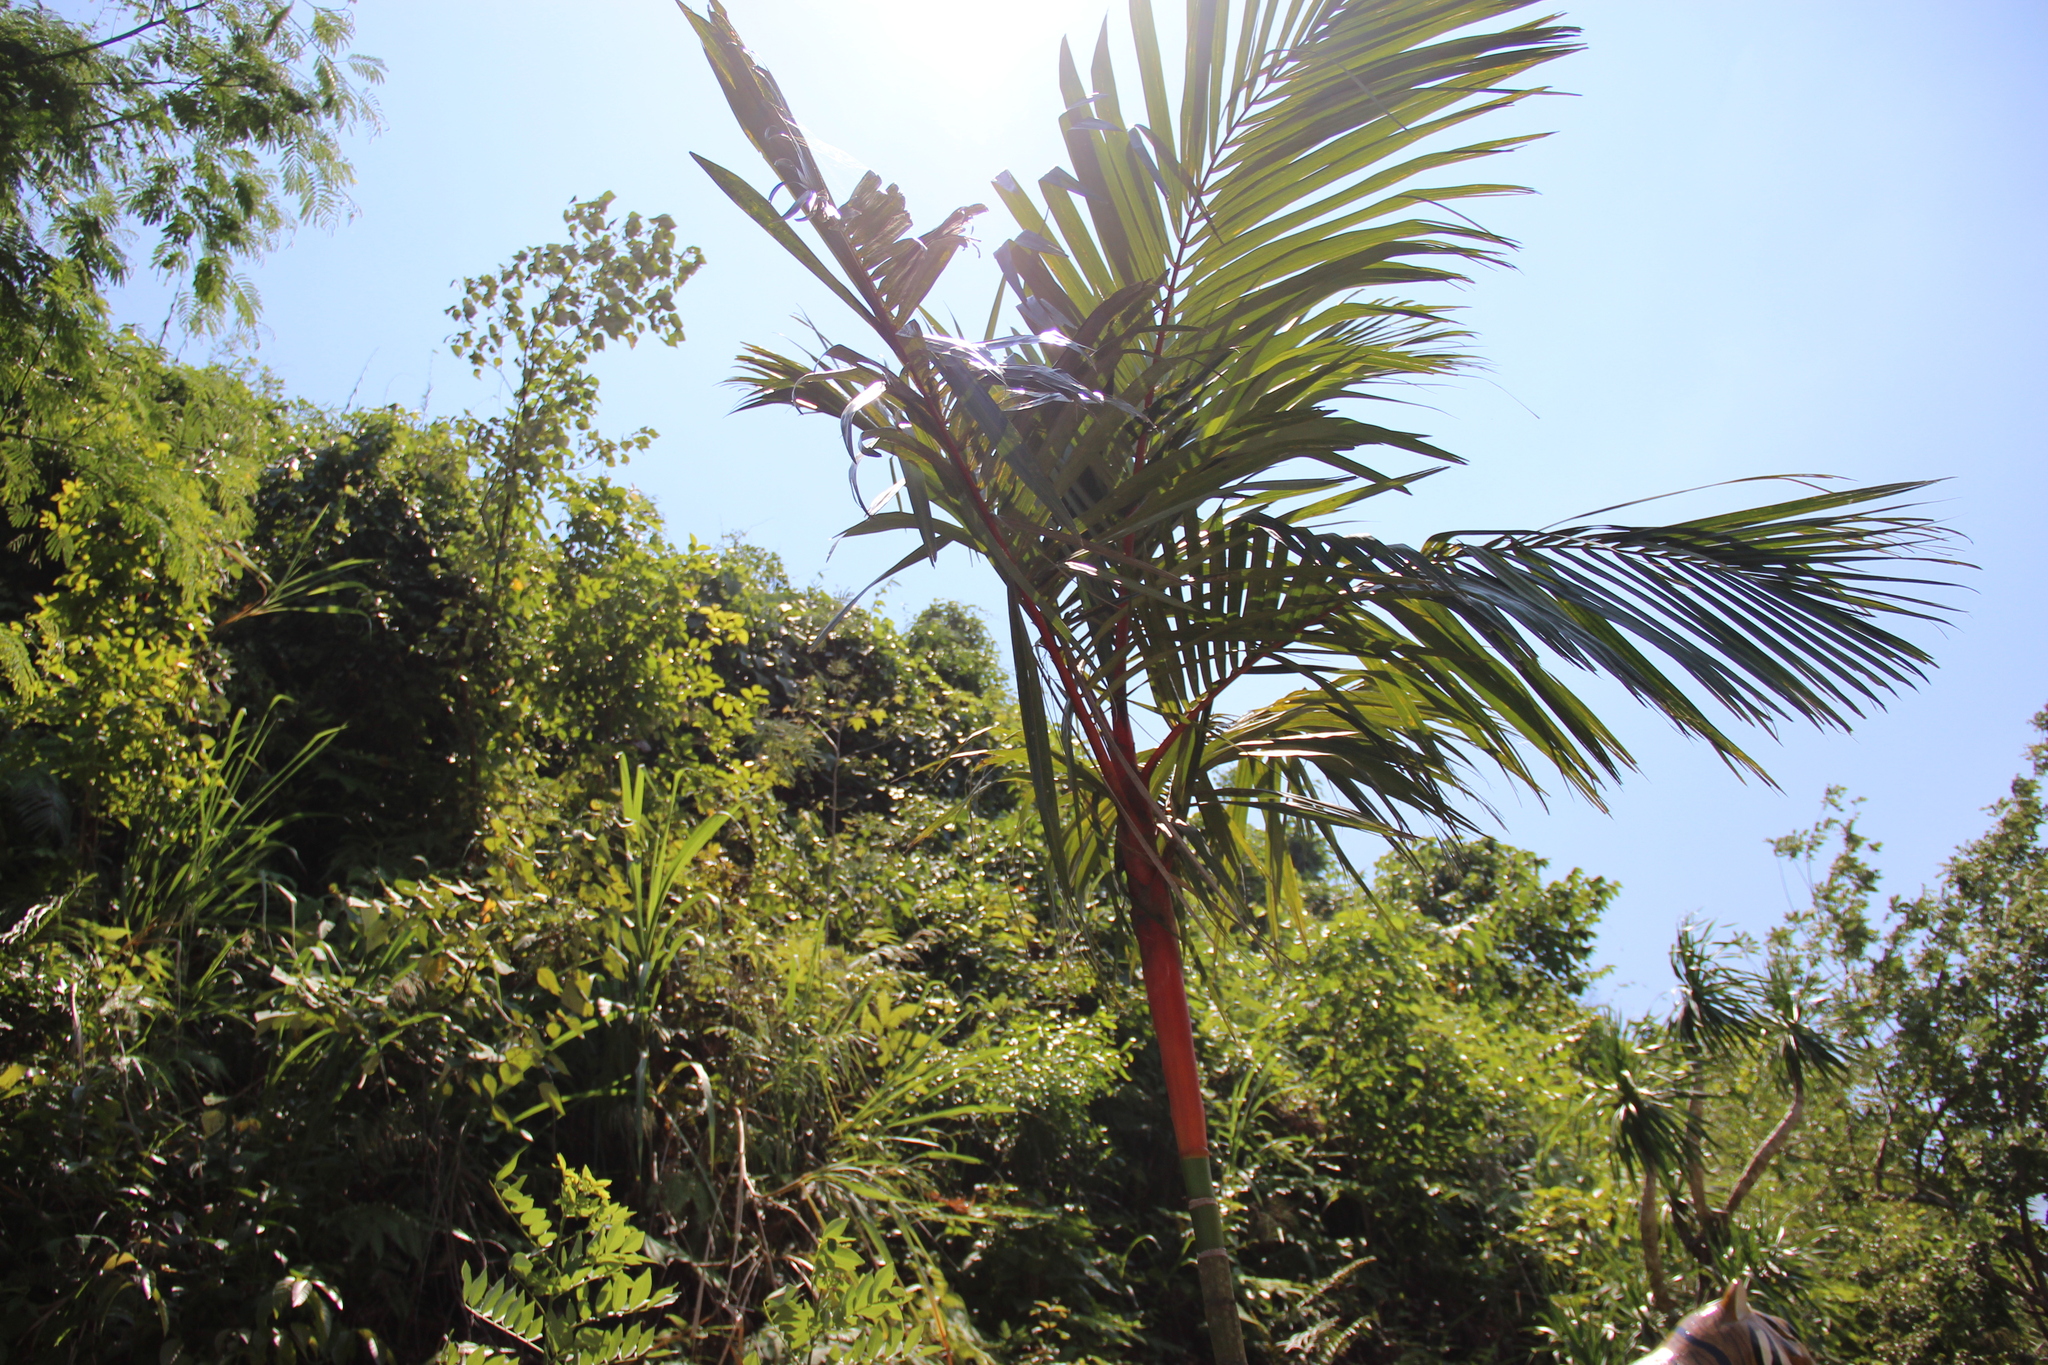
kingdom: Plantae
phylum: Tracheophyta
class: Liliopsida
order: Arecales
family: Arecaceae
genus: Cyrtostachys
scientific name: Cyrtostachys renda
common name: Lipstick palm
